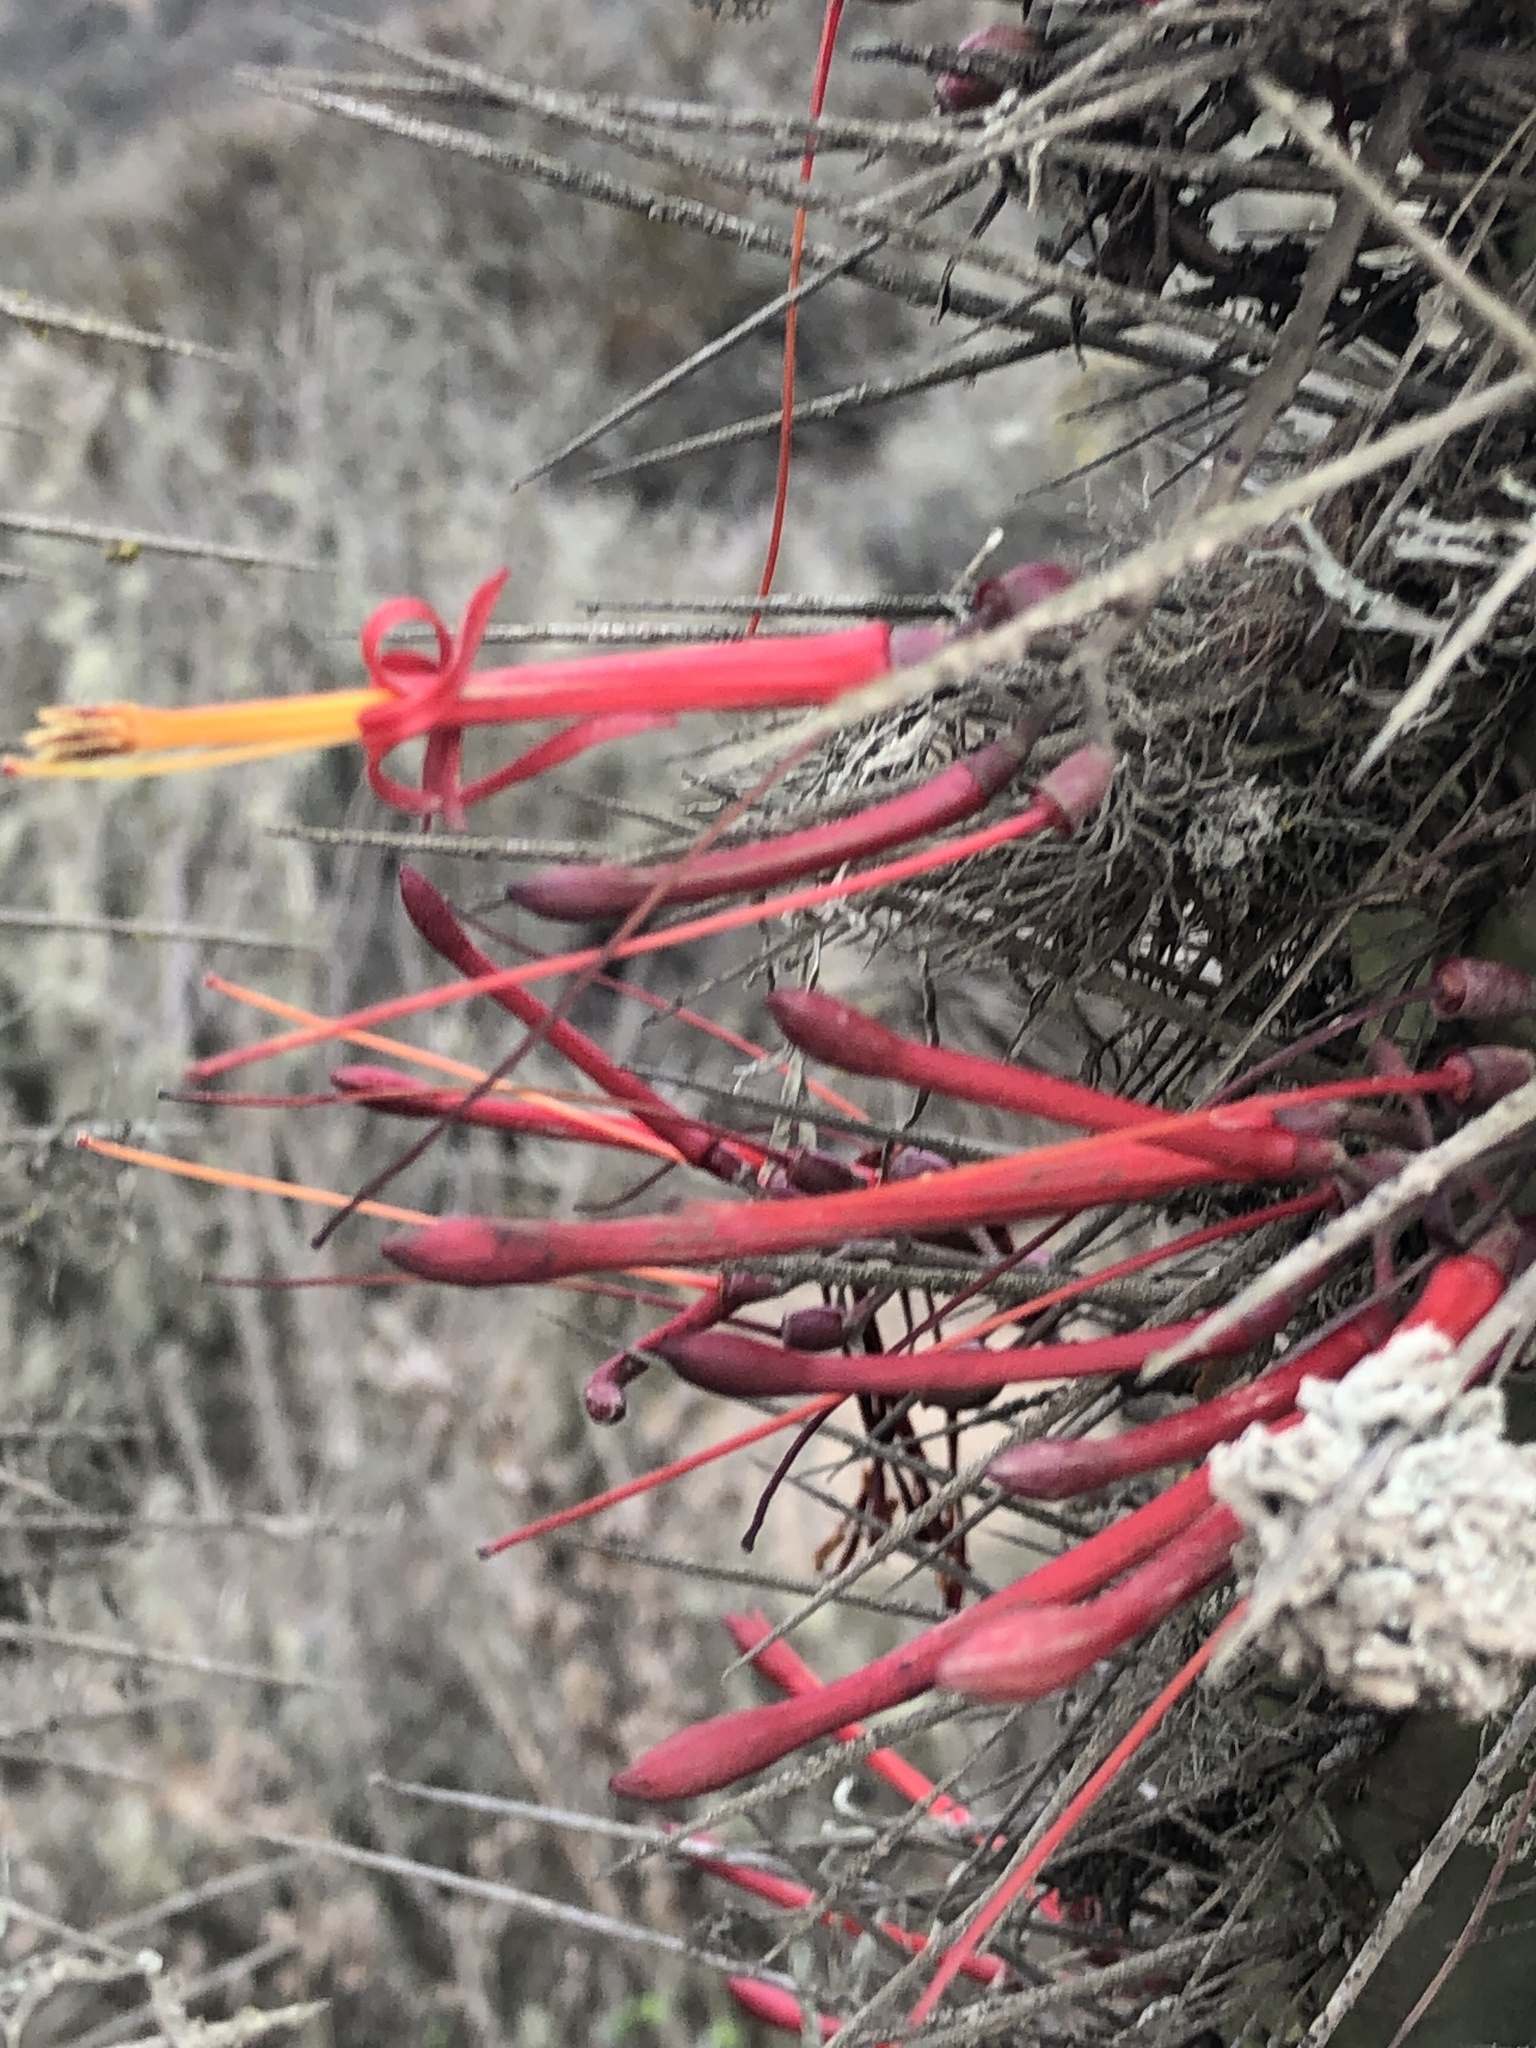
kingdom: Plantae
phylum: Tracheophyta
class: Magnoliopsida
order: Santalales
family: Loranthaceae
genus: Tristerix
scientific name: Tristerix aphyllus
